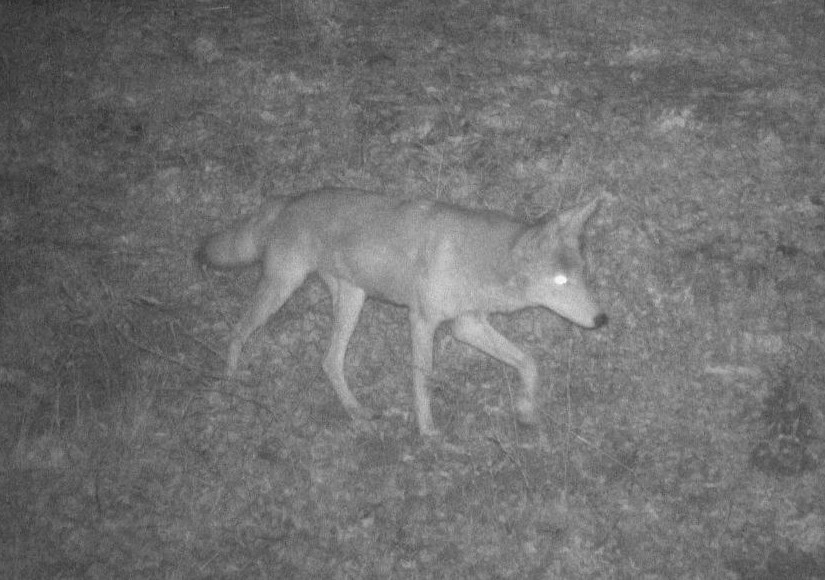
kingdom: Animalia
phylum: Chordata
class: Mammalia
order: Carnivora
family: Canidae
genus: Canis
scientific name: Canis latrans
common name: Coyote
